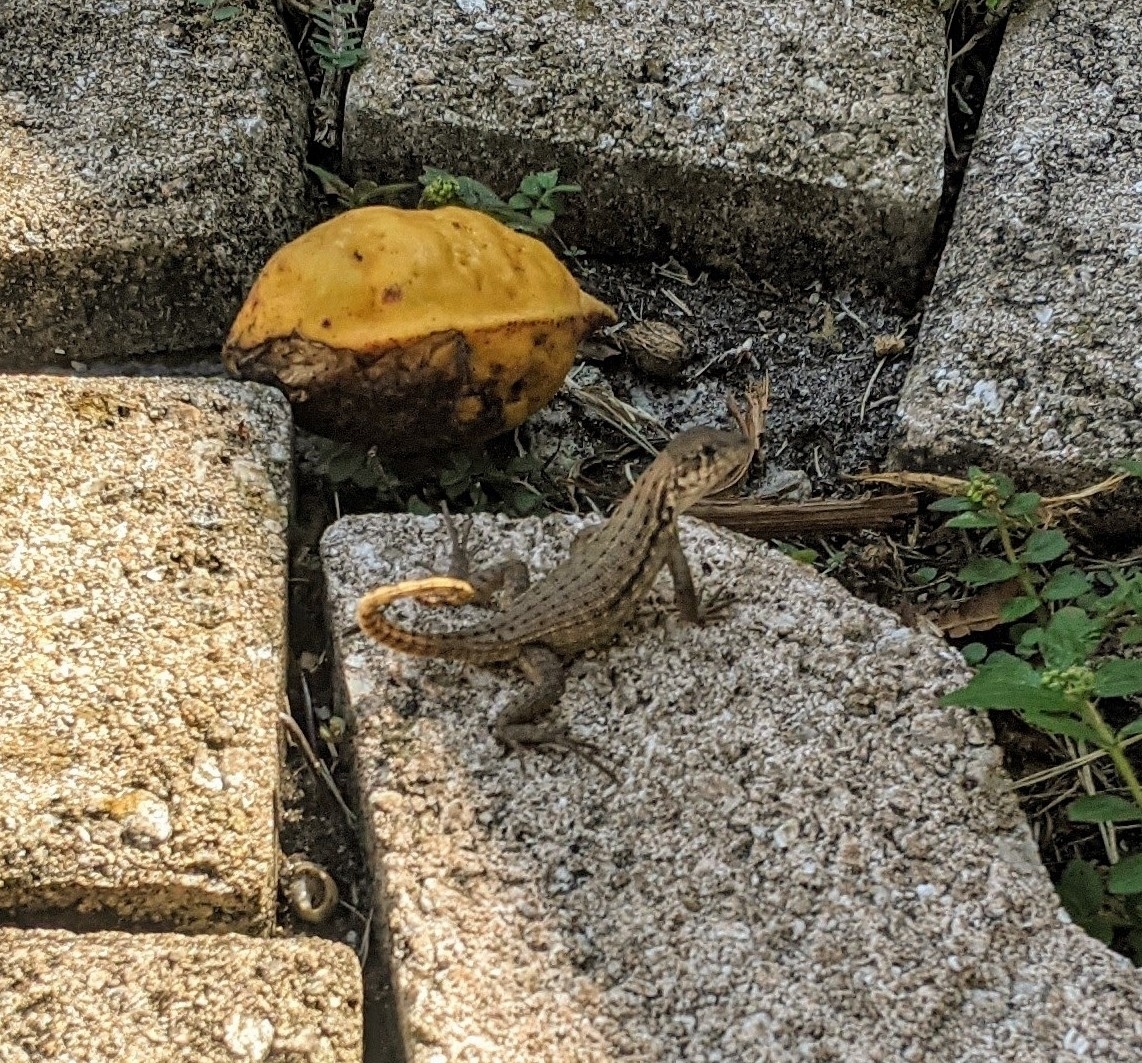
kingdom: Animalia
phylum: Chordata
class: Squamata
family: Leiocephalidae
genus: Leiocephalus
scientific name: Leiocephalus carinatus
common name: Northern curly-tailed lizard
